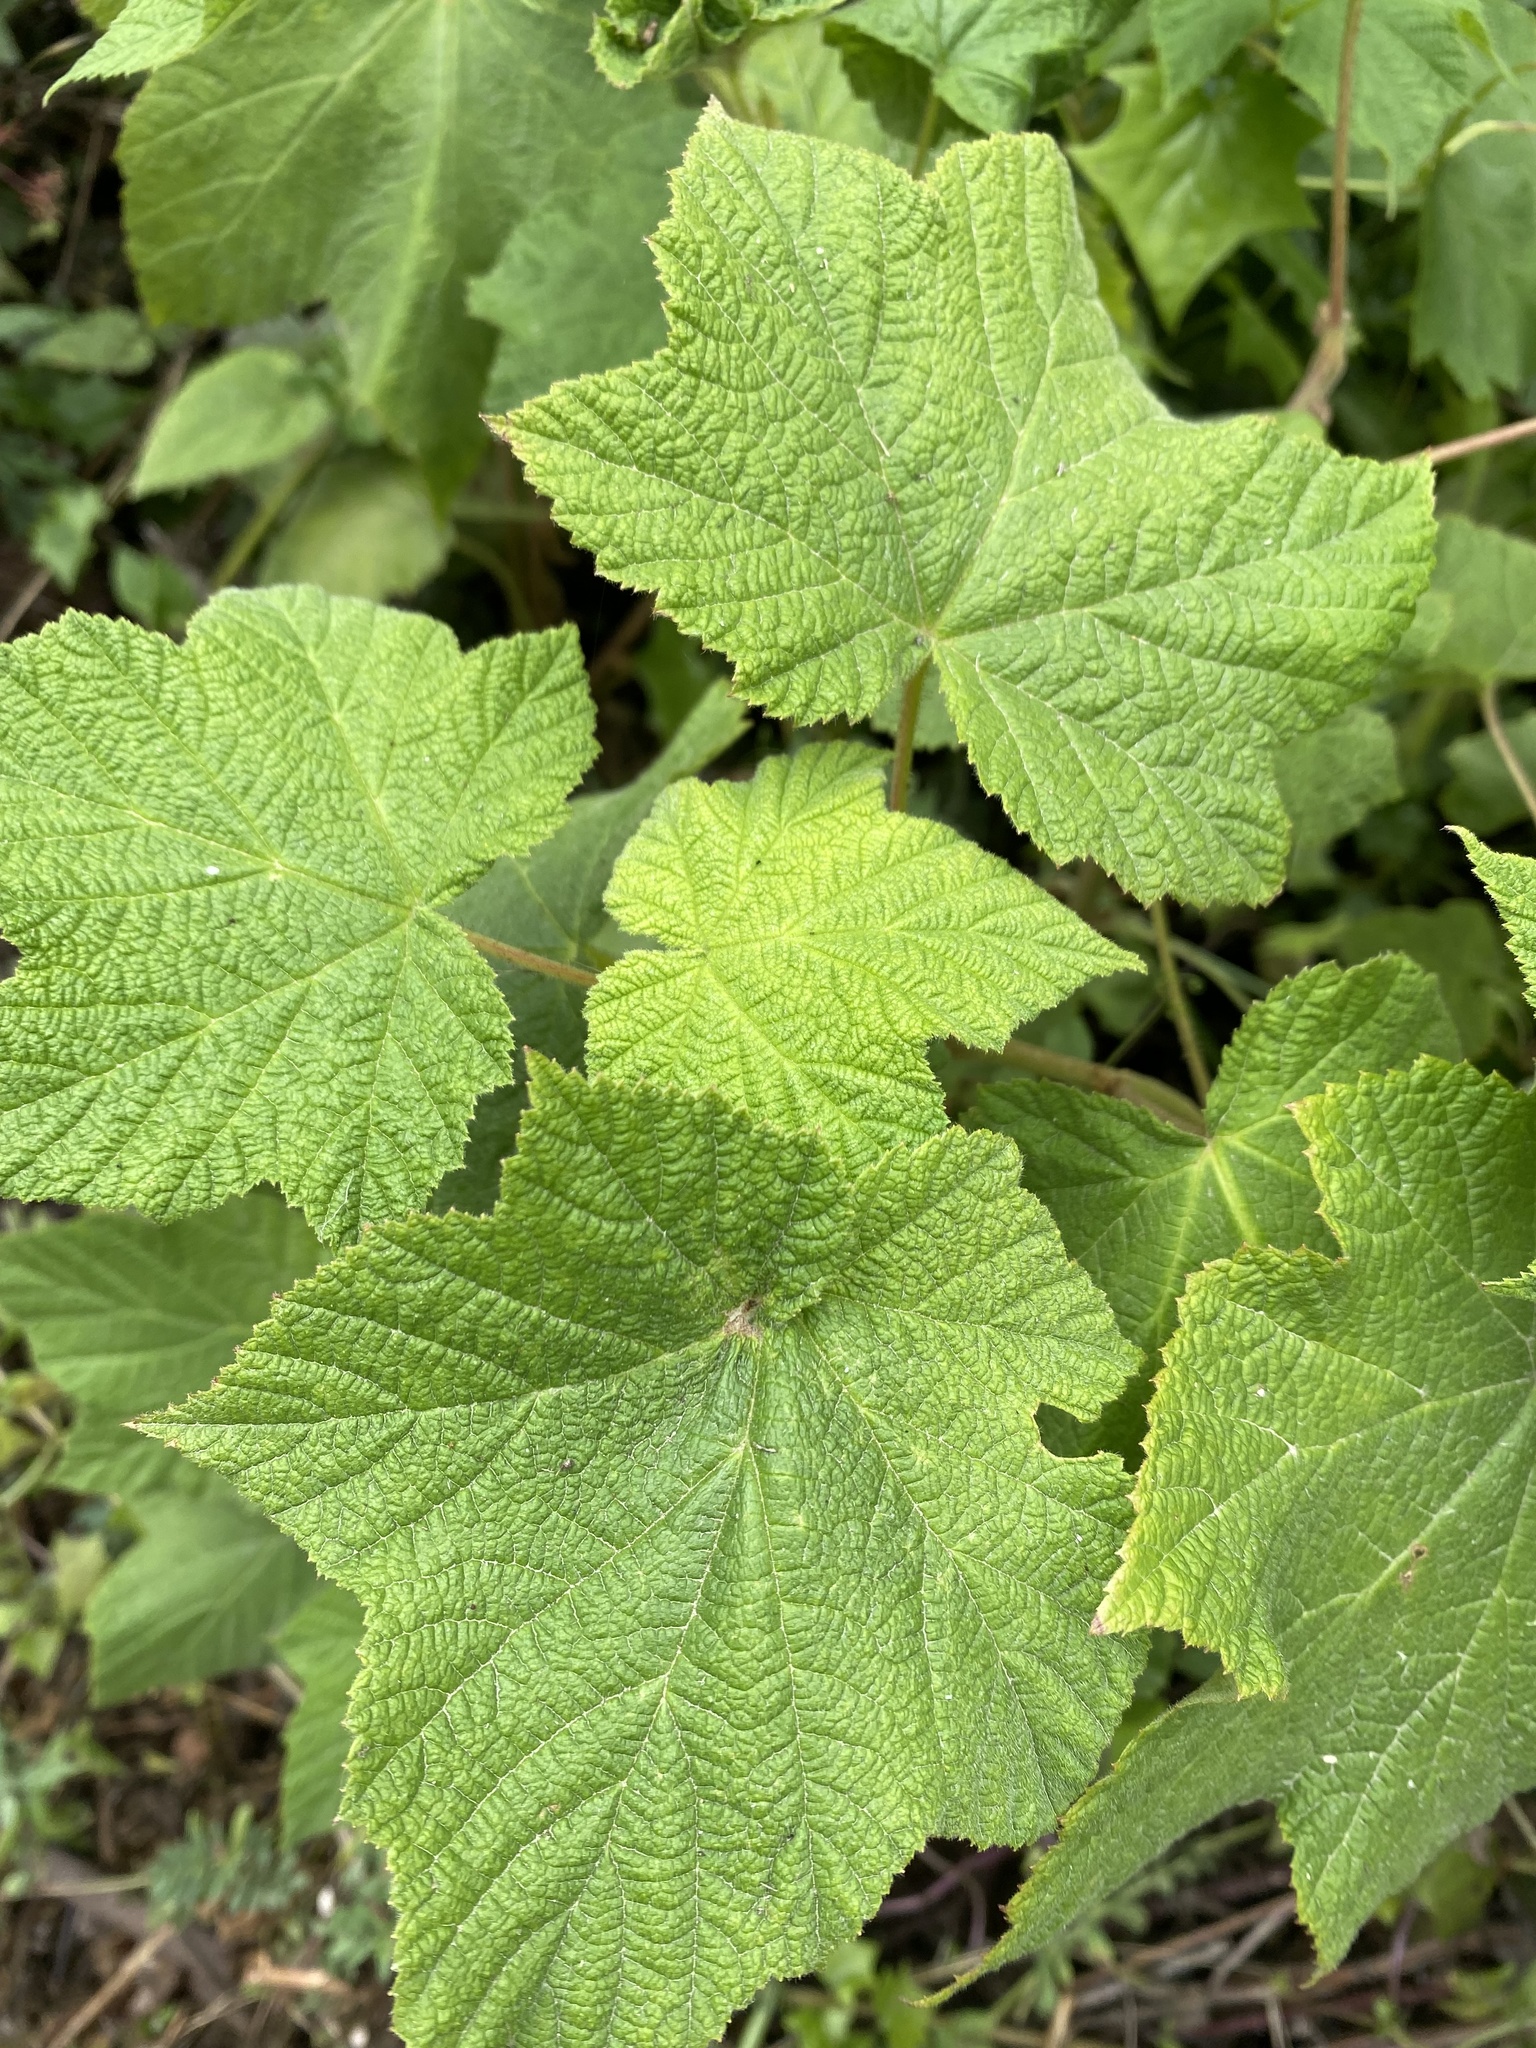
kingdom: Animalia
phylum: Arthropoda
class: Insecta
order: Hymenoptera
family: Cynipidae
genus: Diastrophus
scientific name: Diastrophus
